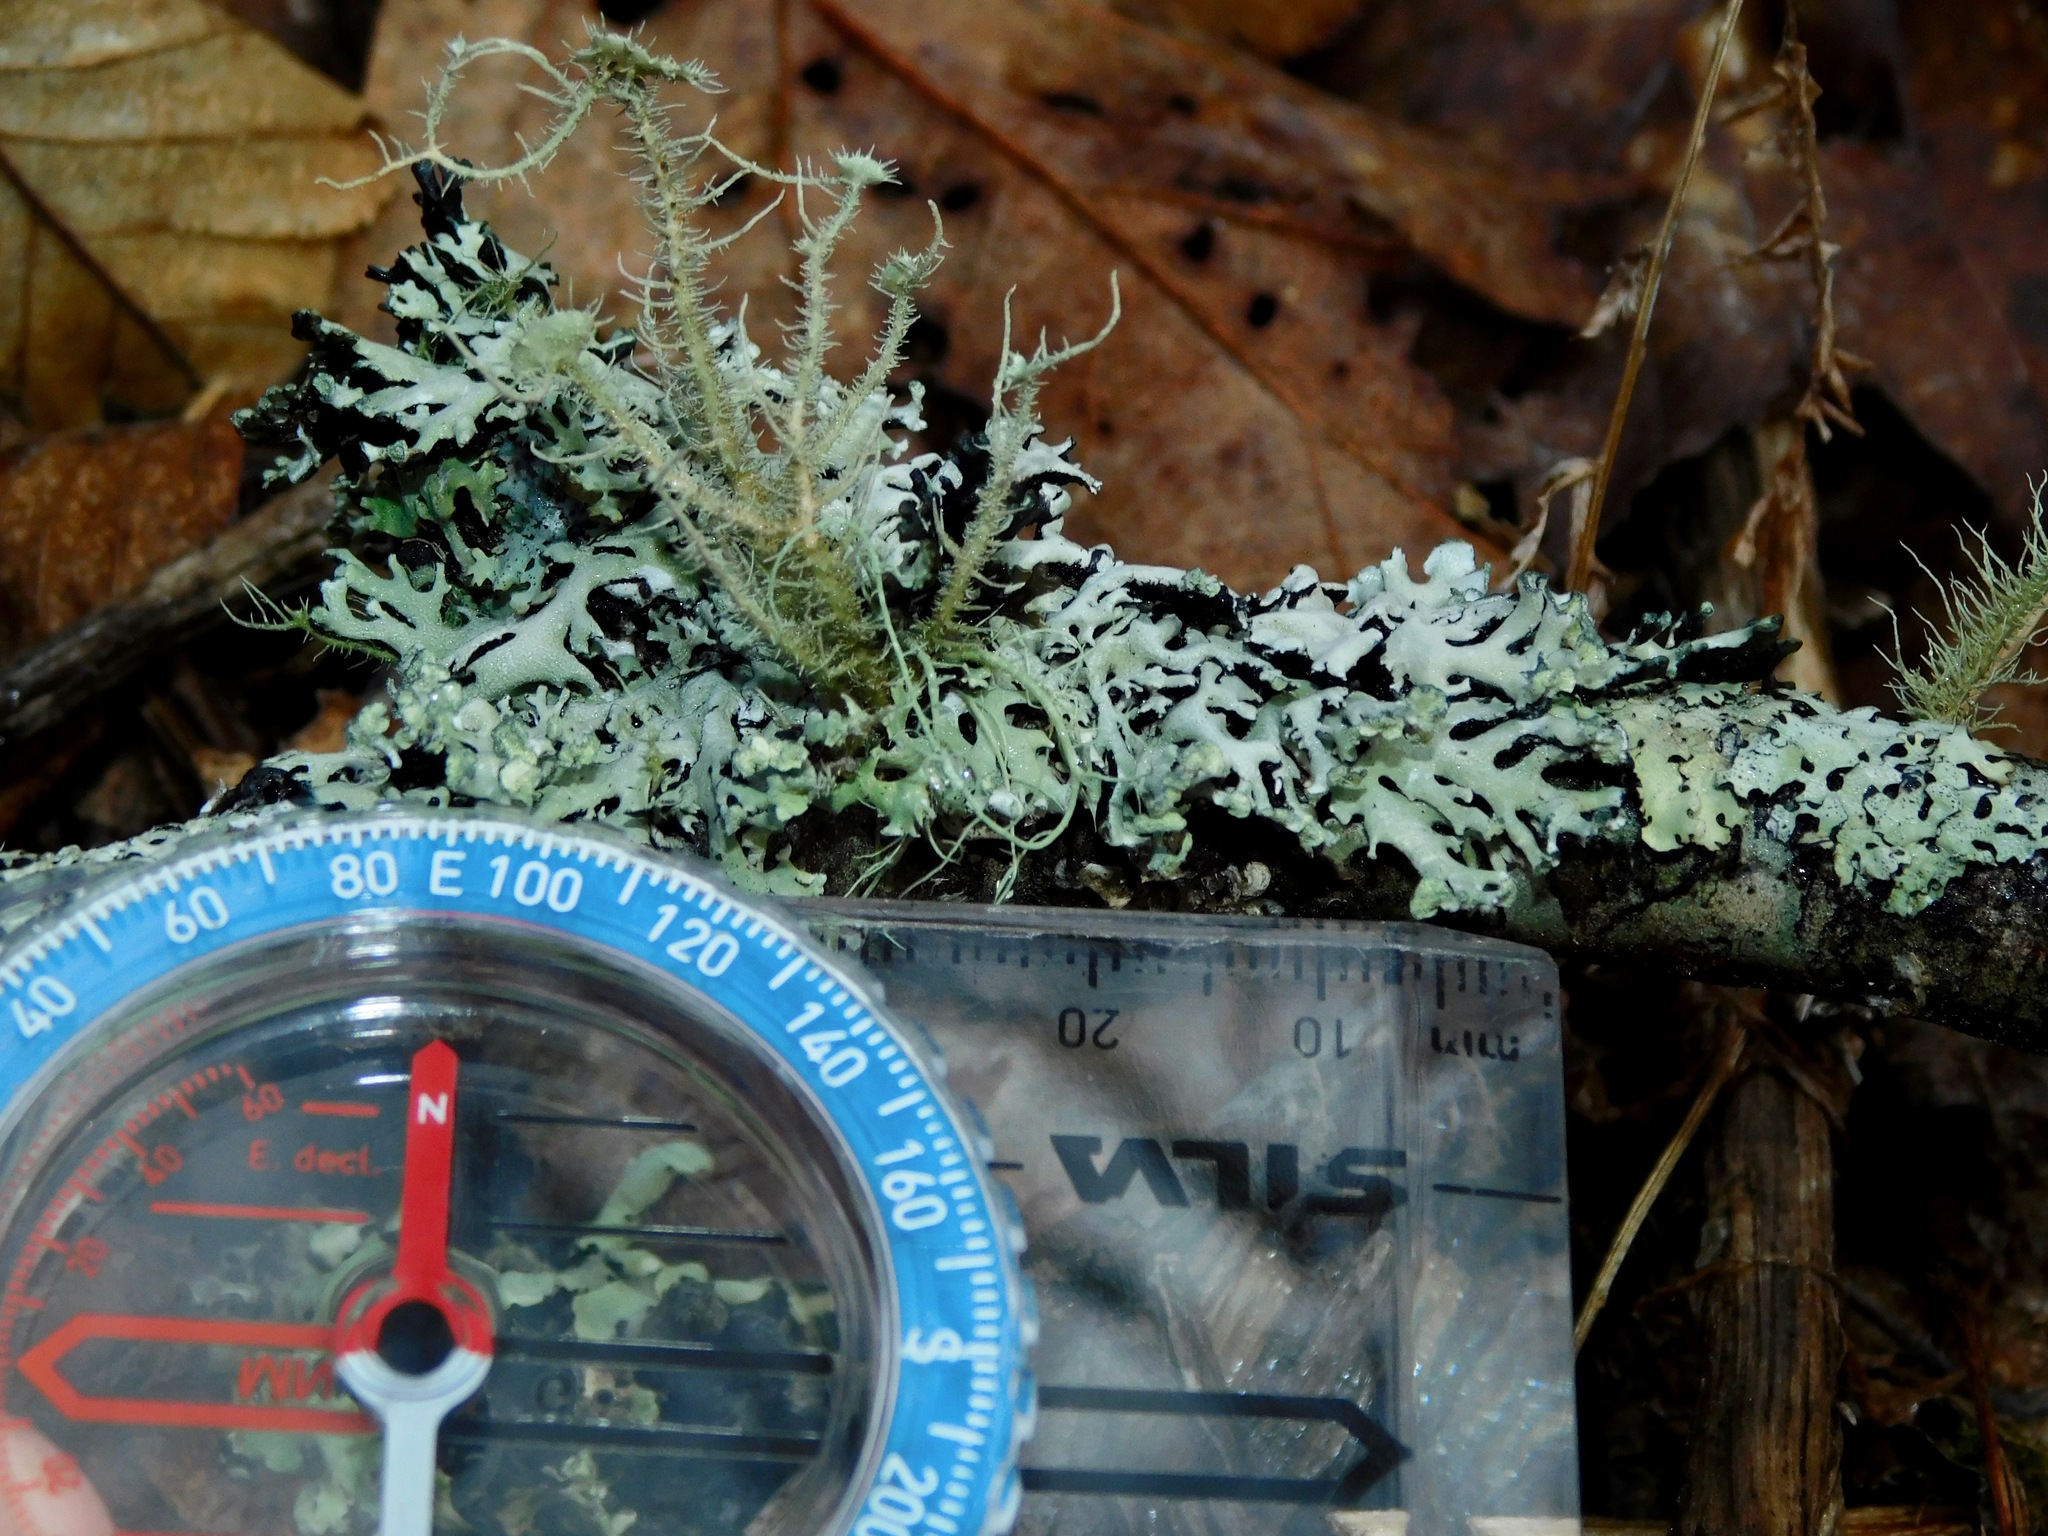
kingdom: Fungi
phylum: Ascomycota
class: Lecanoromycetes
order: Lecanorales
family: Parmeliaceae
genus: Menegazzia
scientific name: Menegazzia subsimilis
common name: Tree flute lichen
